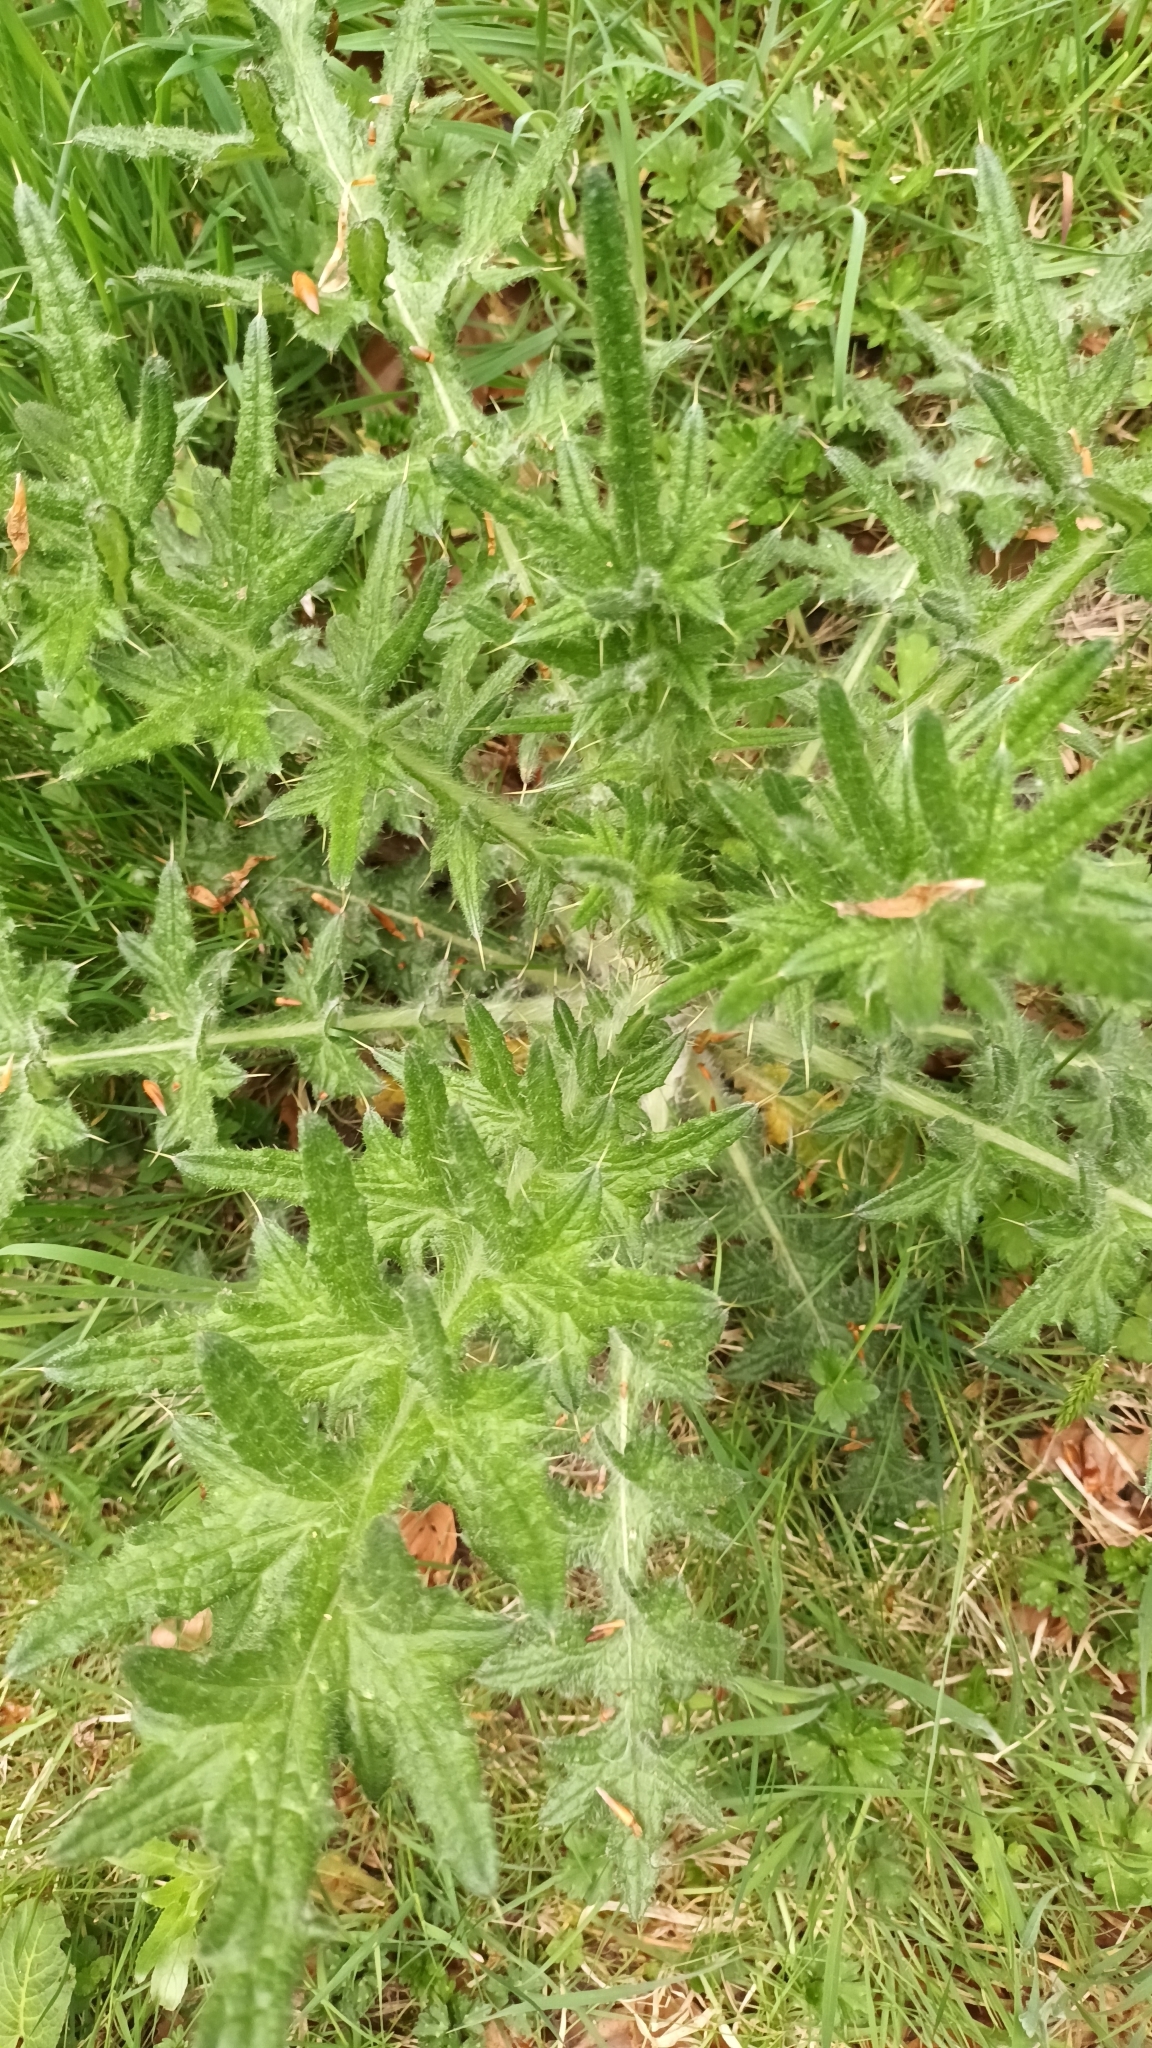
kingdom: Plantae
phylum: Tracheophyta
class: Magnoliopsida
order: Asterales
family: Asteraceae
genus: Cirsium
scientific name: Cirsium vulgare
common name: Bull thistle
